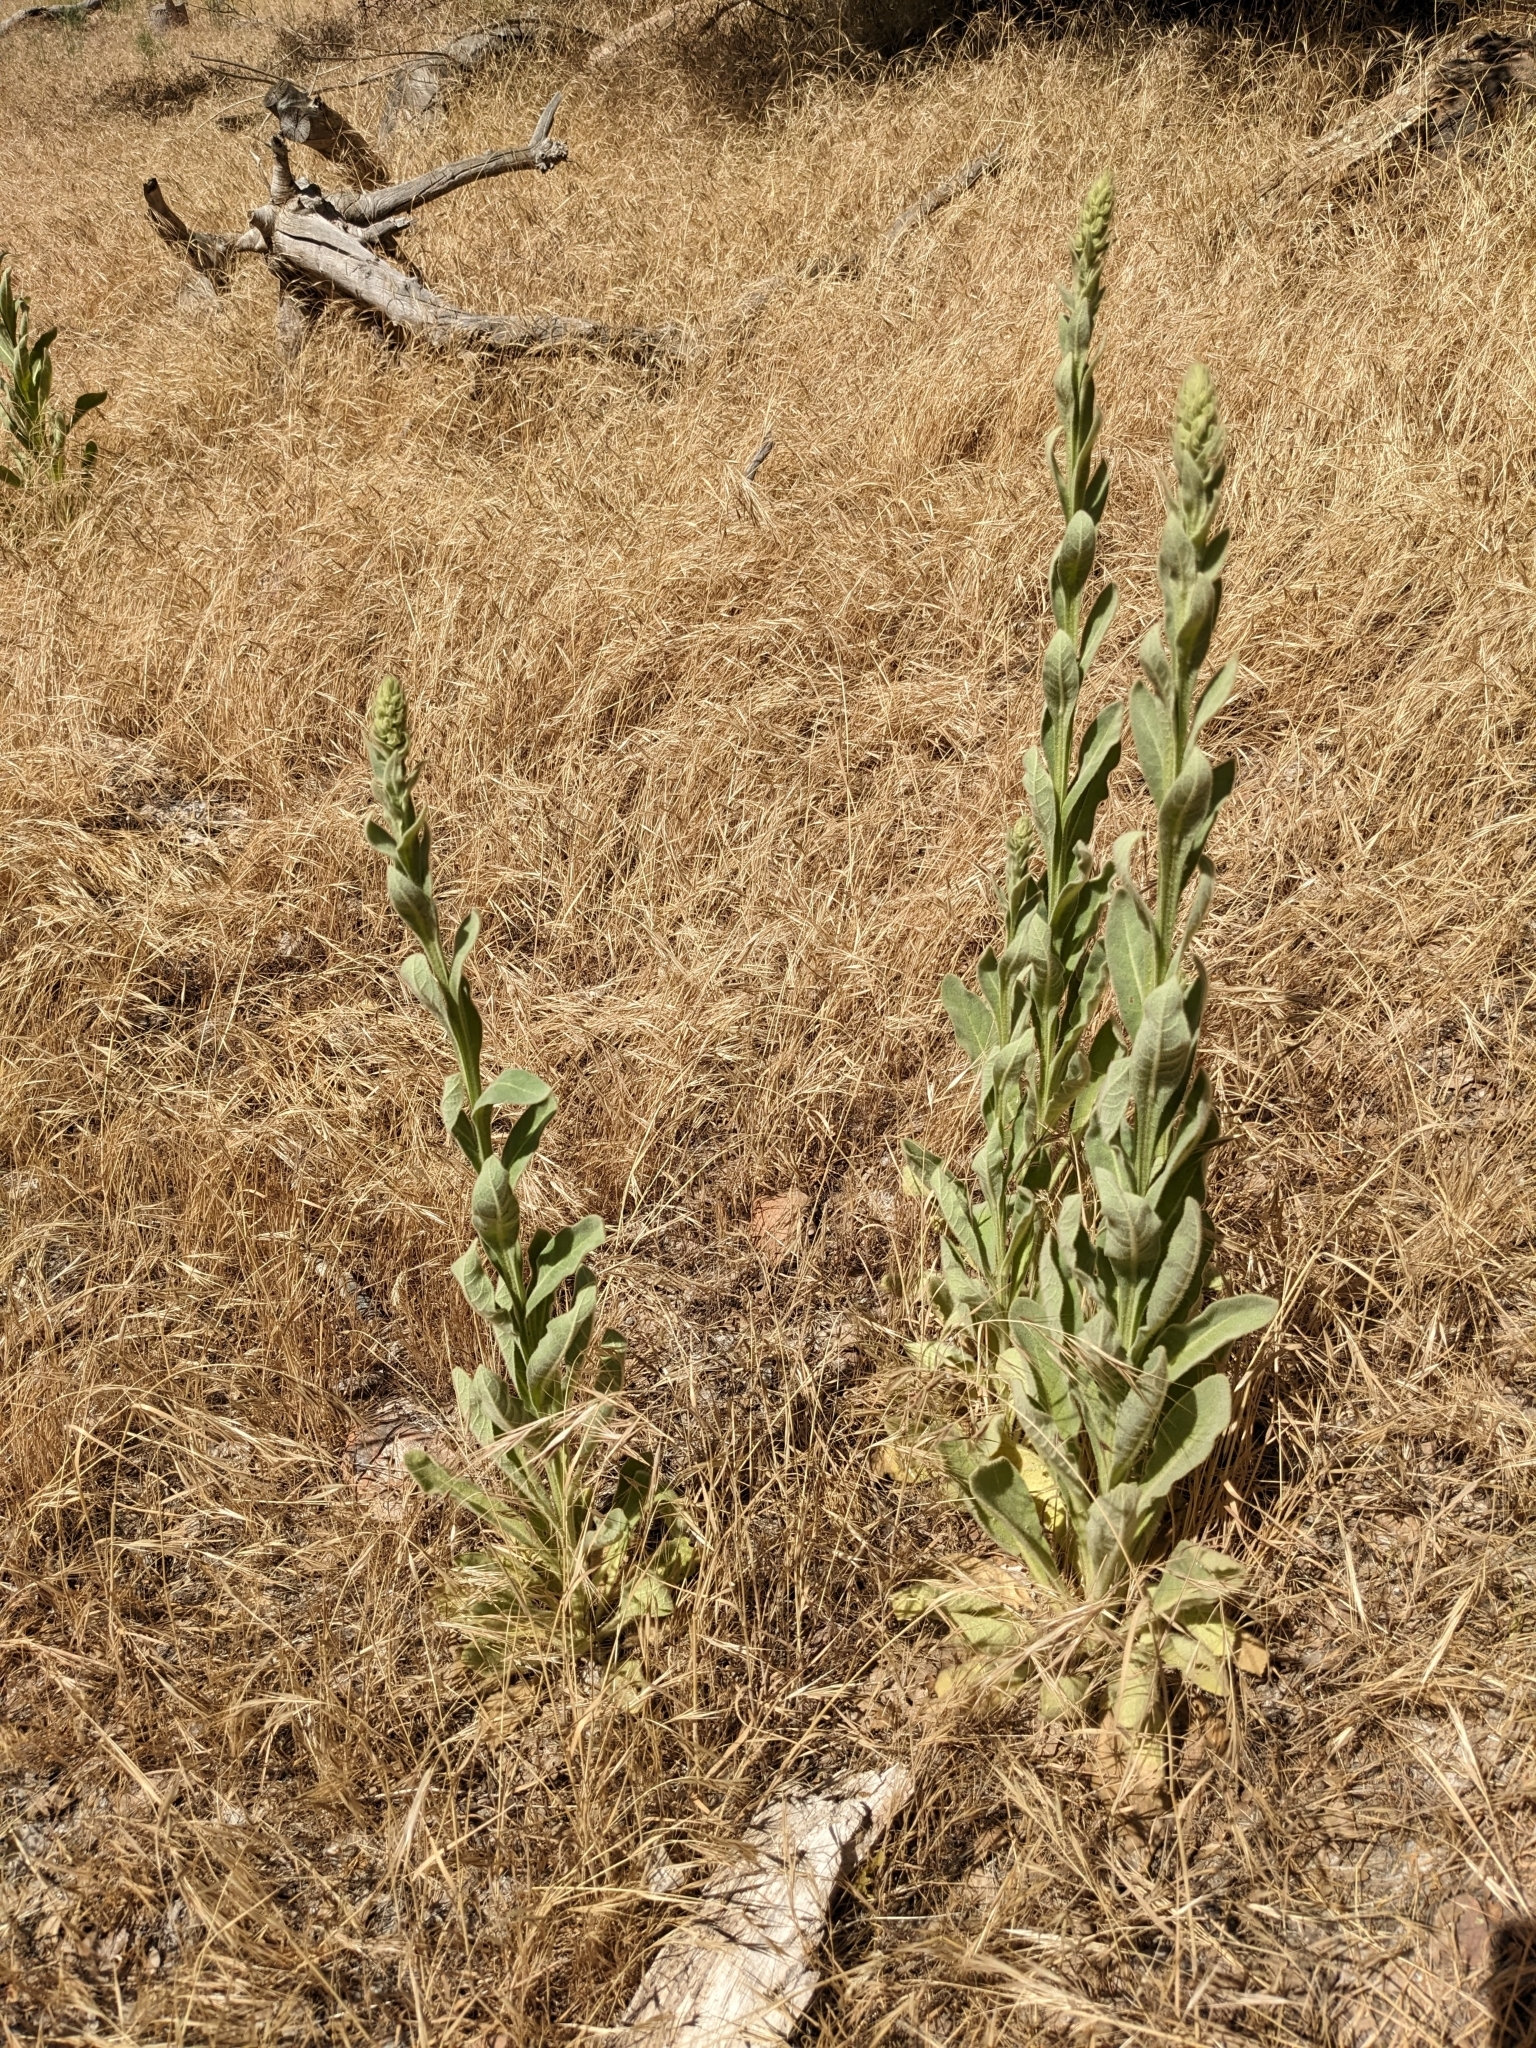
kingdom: Plantae
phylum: Tracheophyta
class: Magnoliopsida
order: Lamiales
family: Scrophulariaceae
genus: Verbascum
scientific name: Verbascum thapsus
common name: Common mullein
